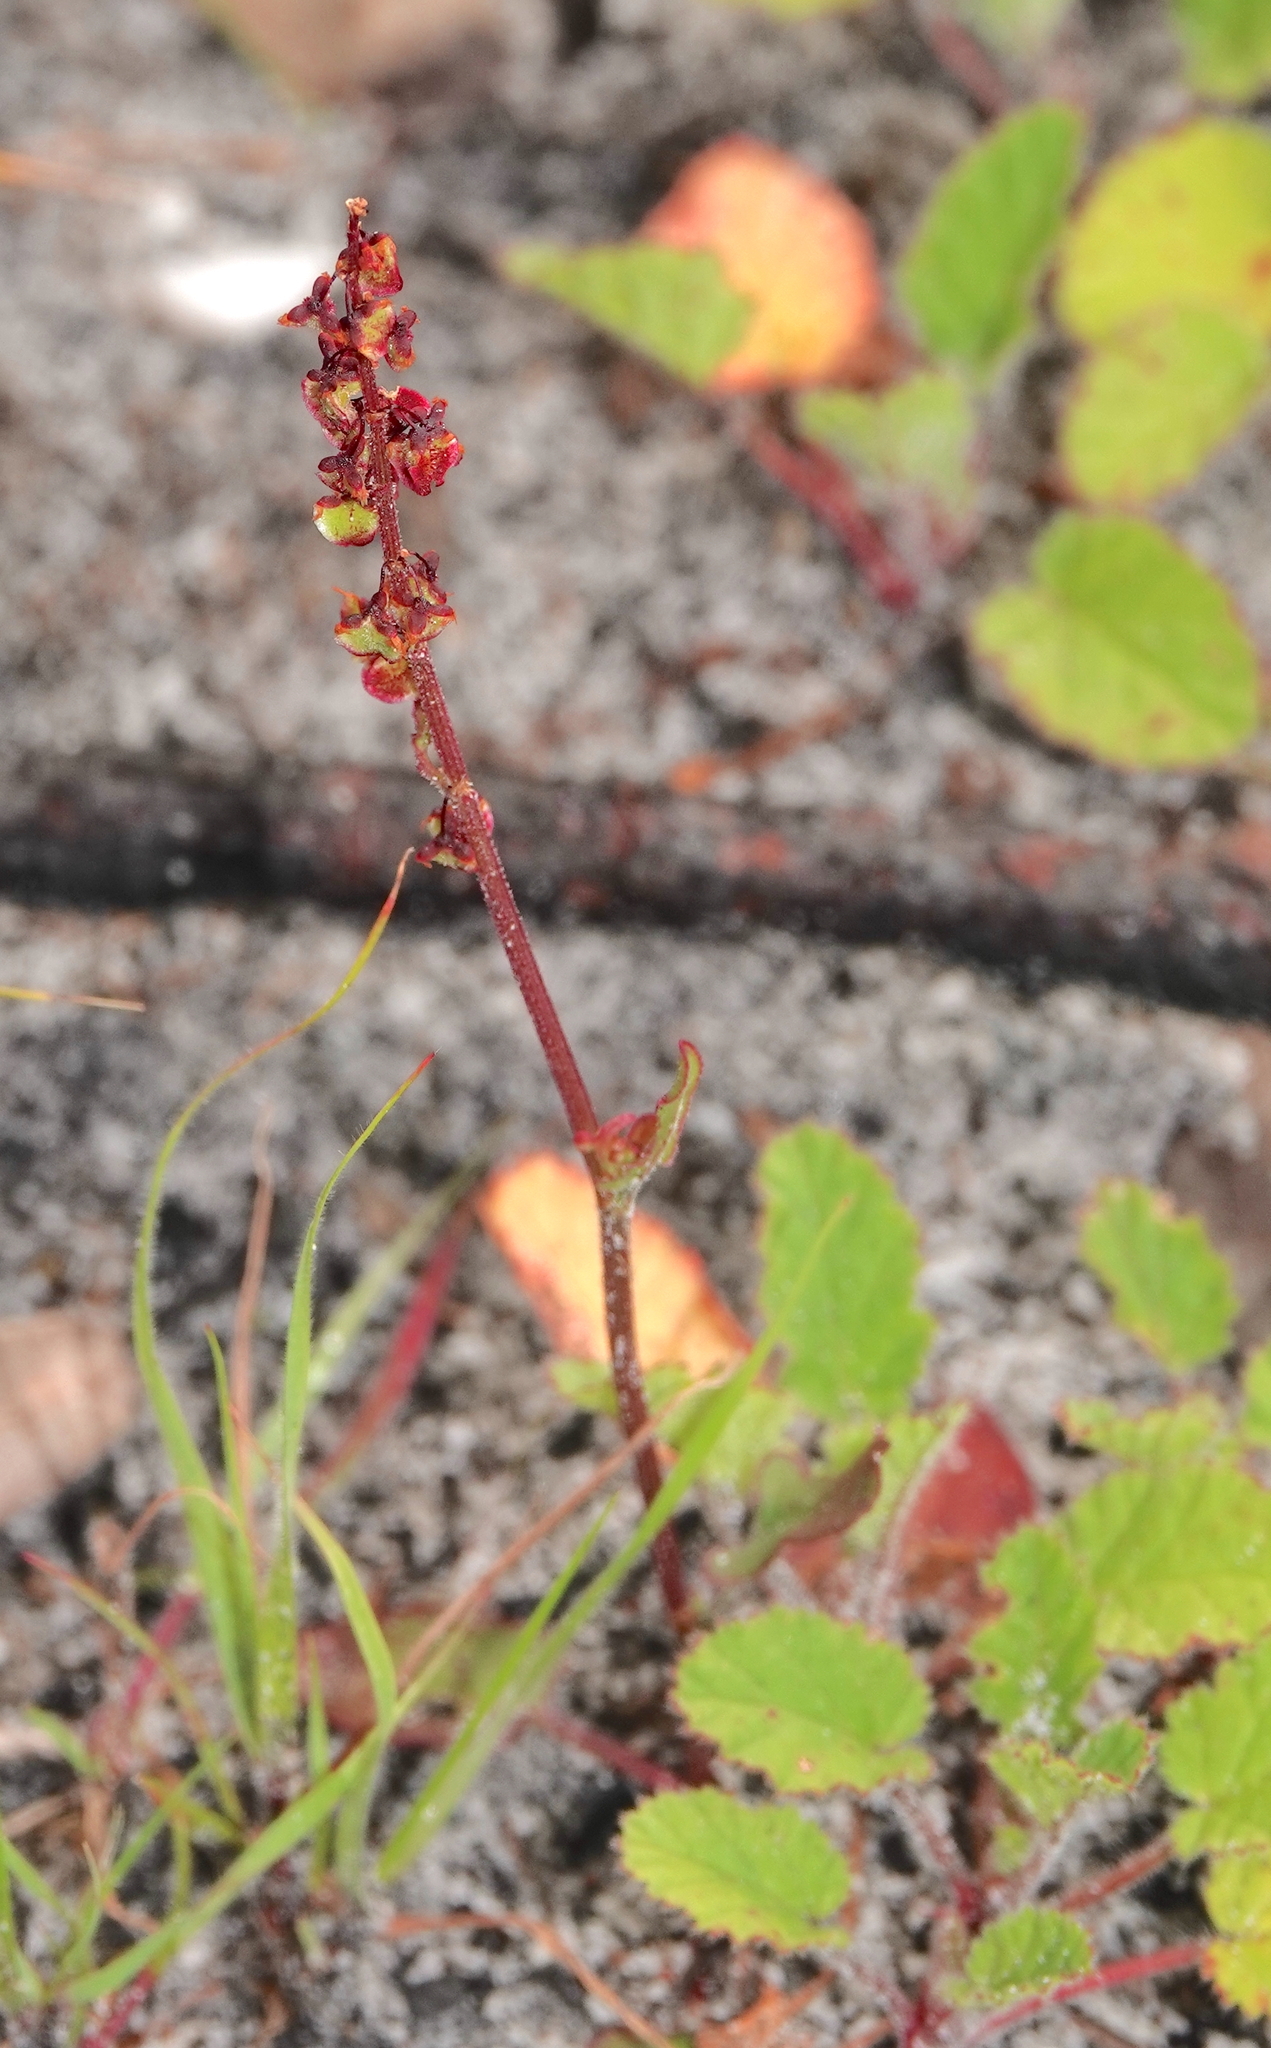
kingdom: Plantae
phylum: Tracheophyta
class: Magnoliopsida
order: Caryophyllales
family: Polygonaceae
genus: Rumex
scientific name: Rumex cordatus
